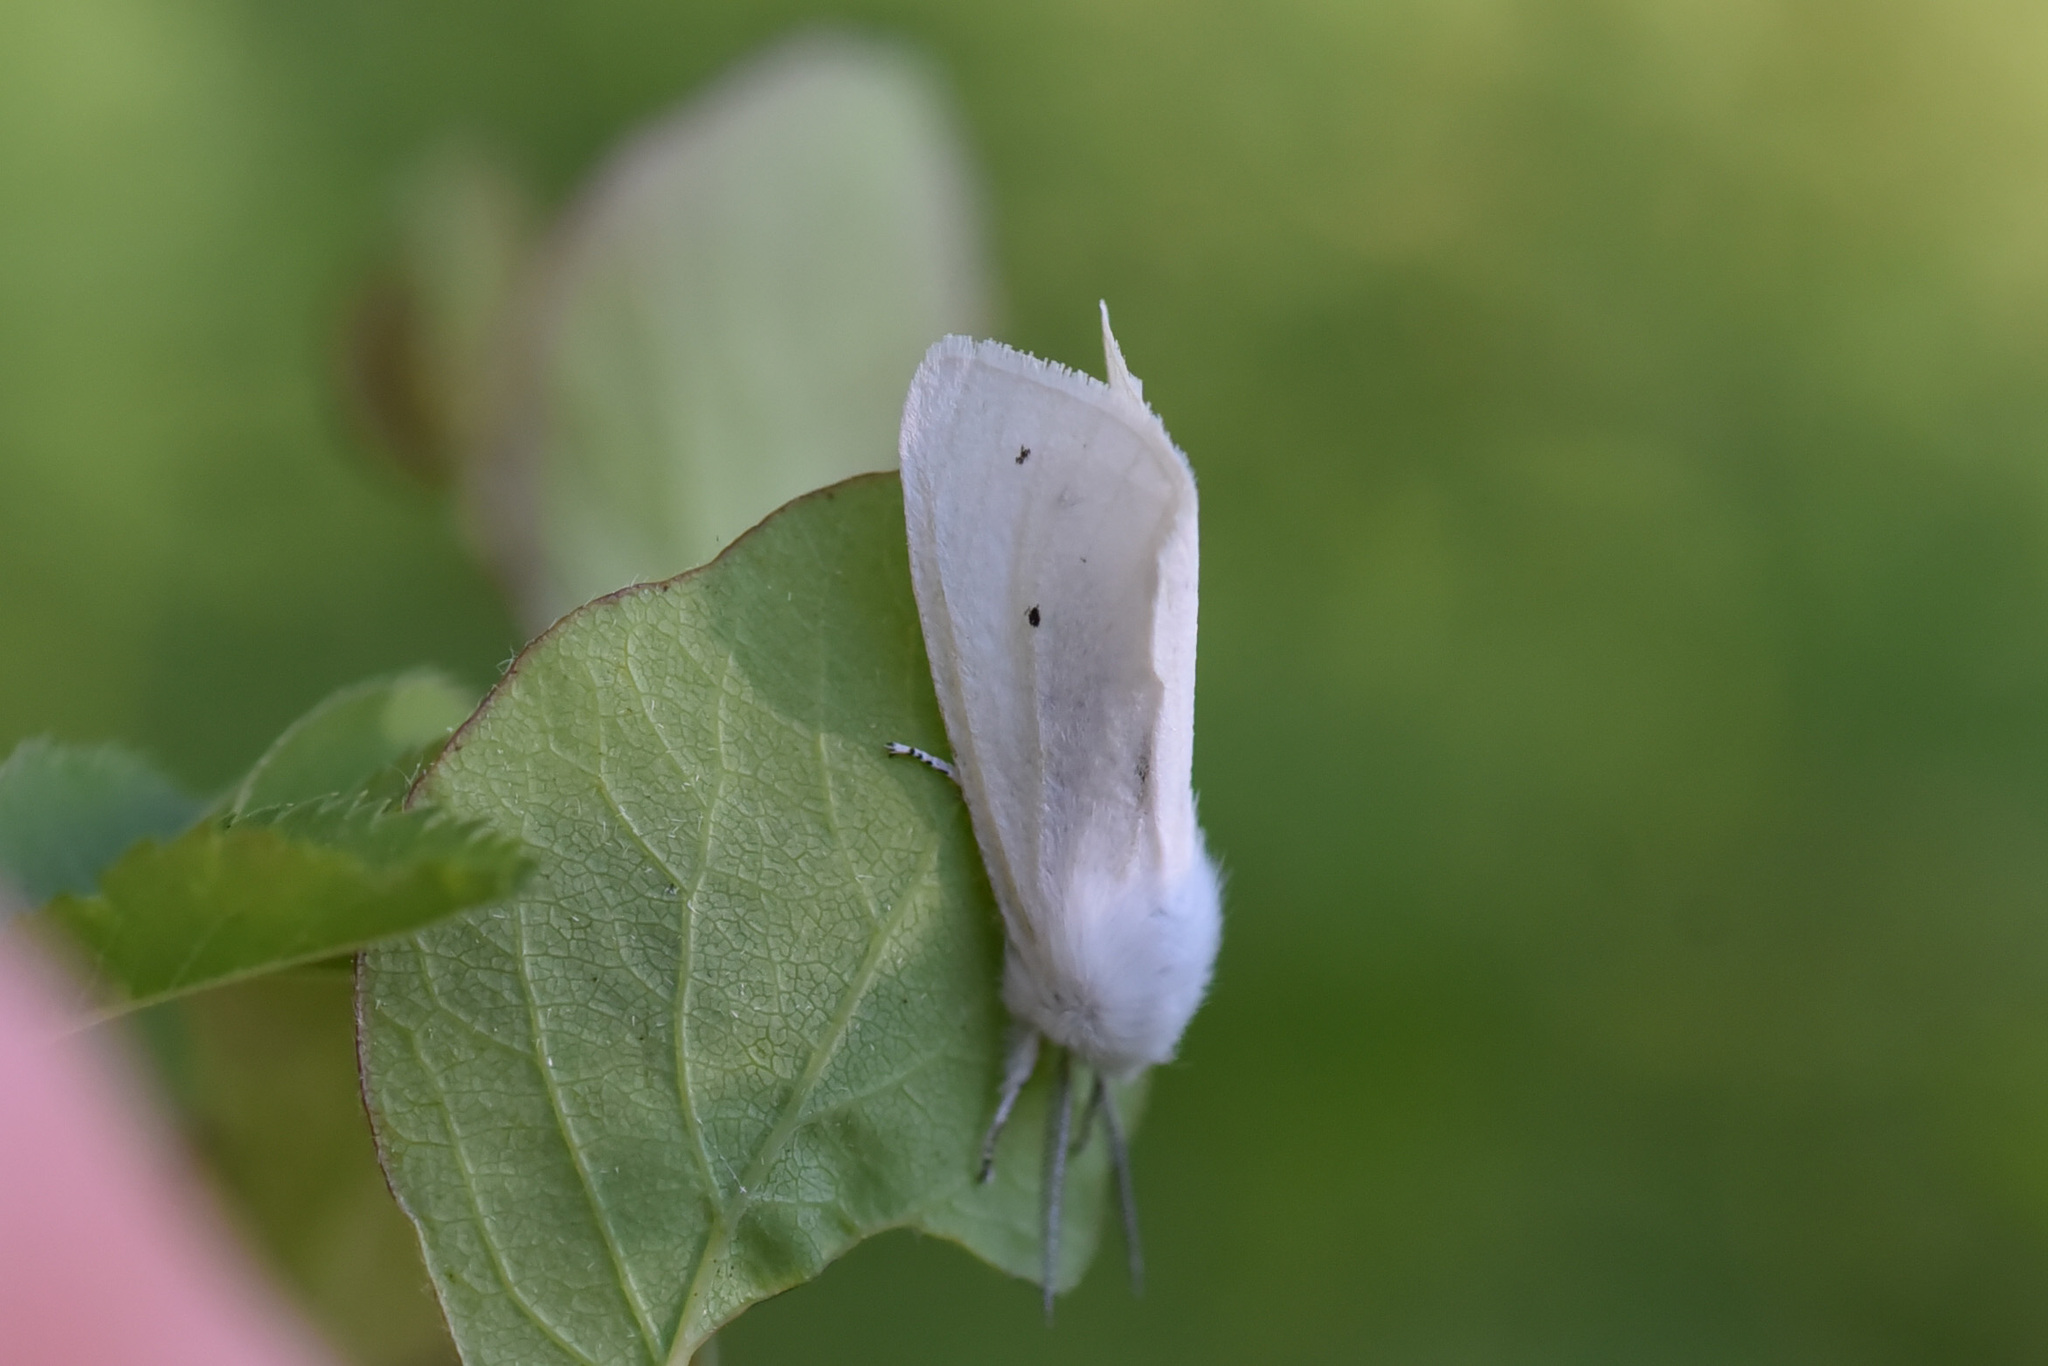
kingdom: Animalia
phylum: Arthropoda
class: Insecta
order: Lepidoptera
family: Erebidae
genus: Spilosoma
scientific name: Spilosoma virginica
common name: Virginia tiger moth
